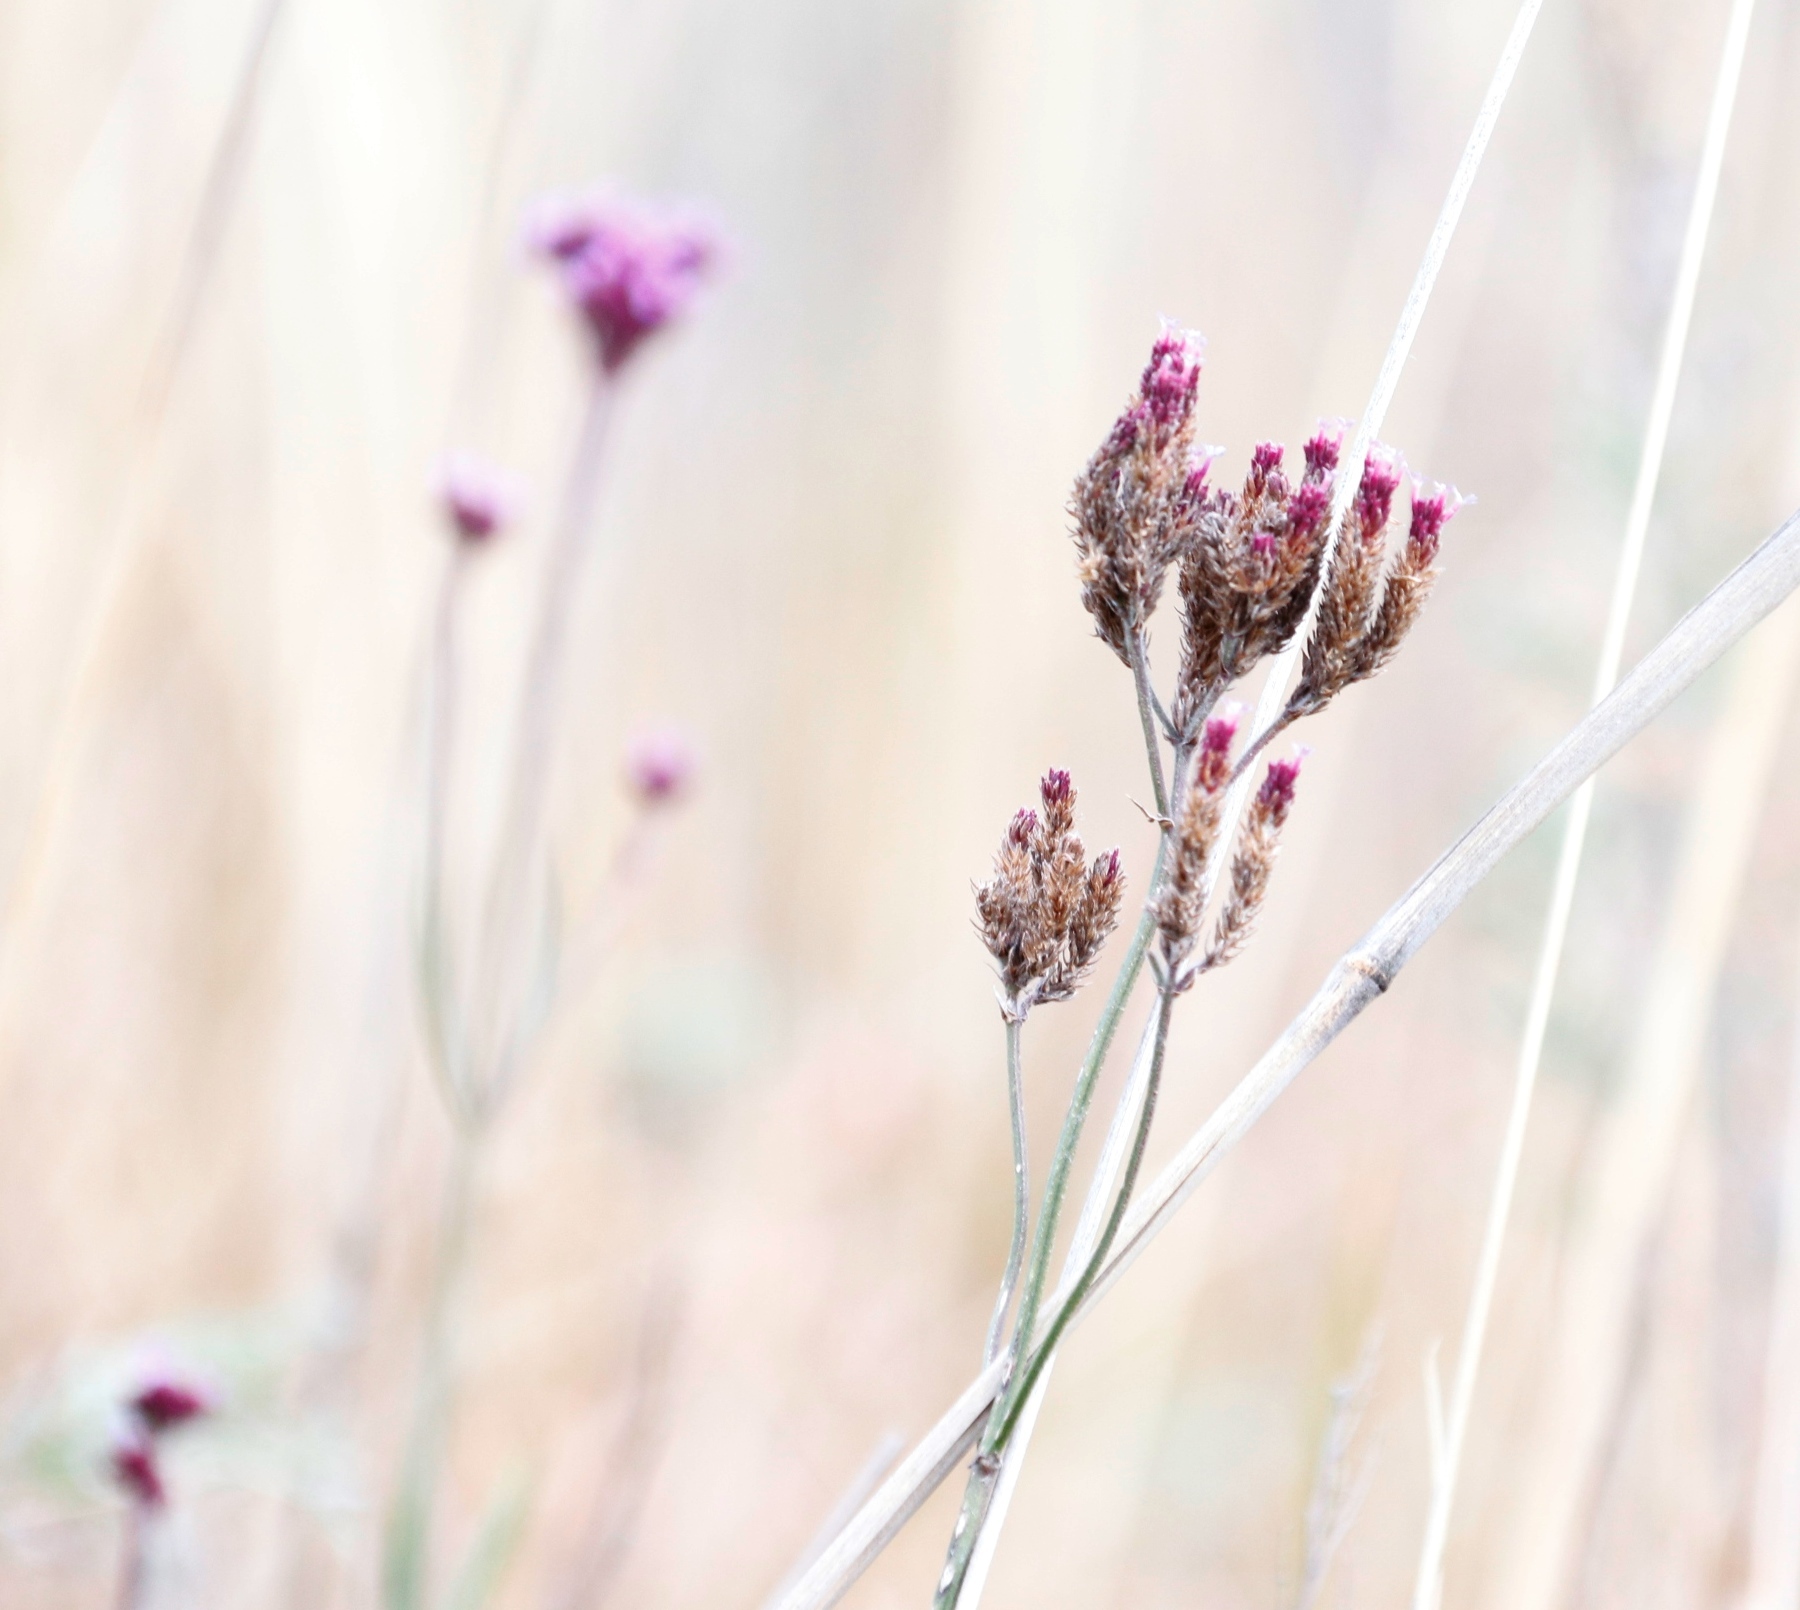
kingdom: Plantae
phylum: Tracheophyta
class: Magnoliopsida
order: Lamiales
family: Verbenaceae
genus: Verbena
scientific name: Verbena bonariensis
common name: Purpletop vervain
